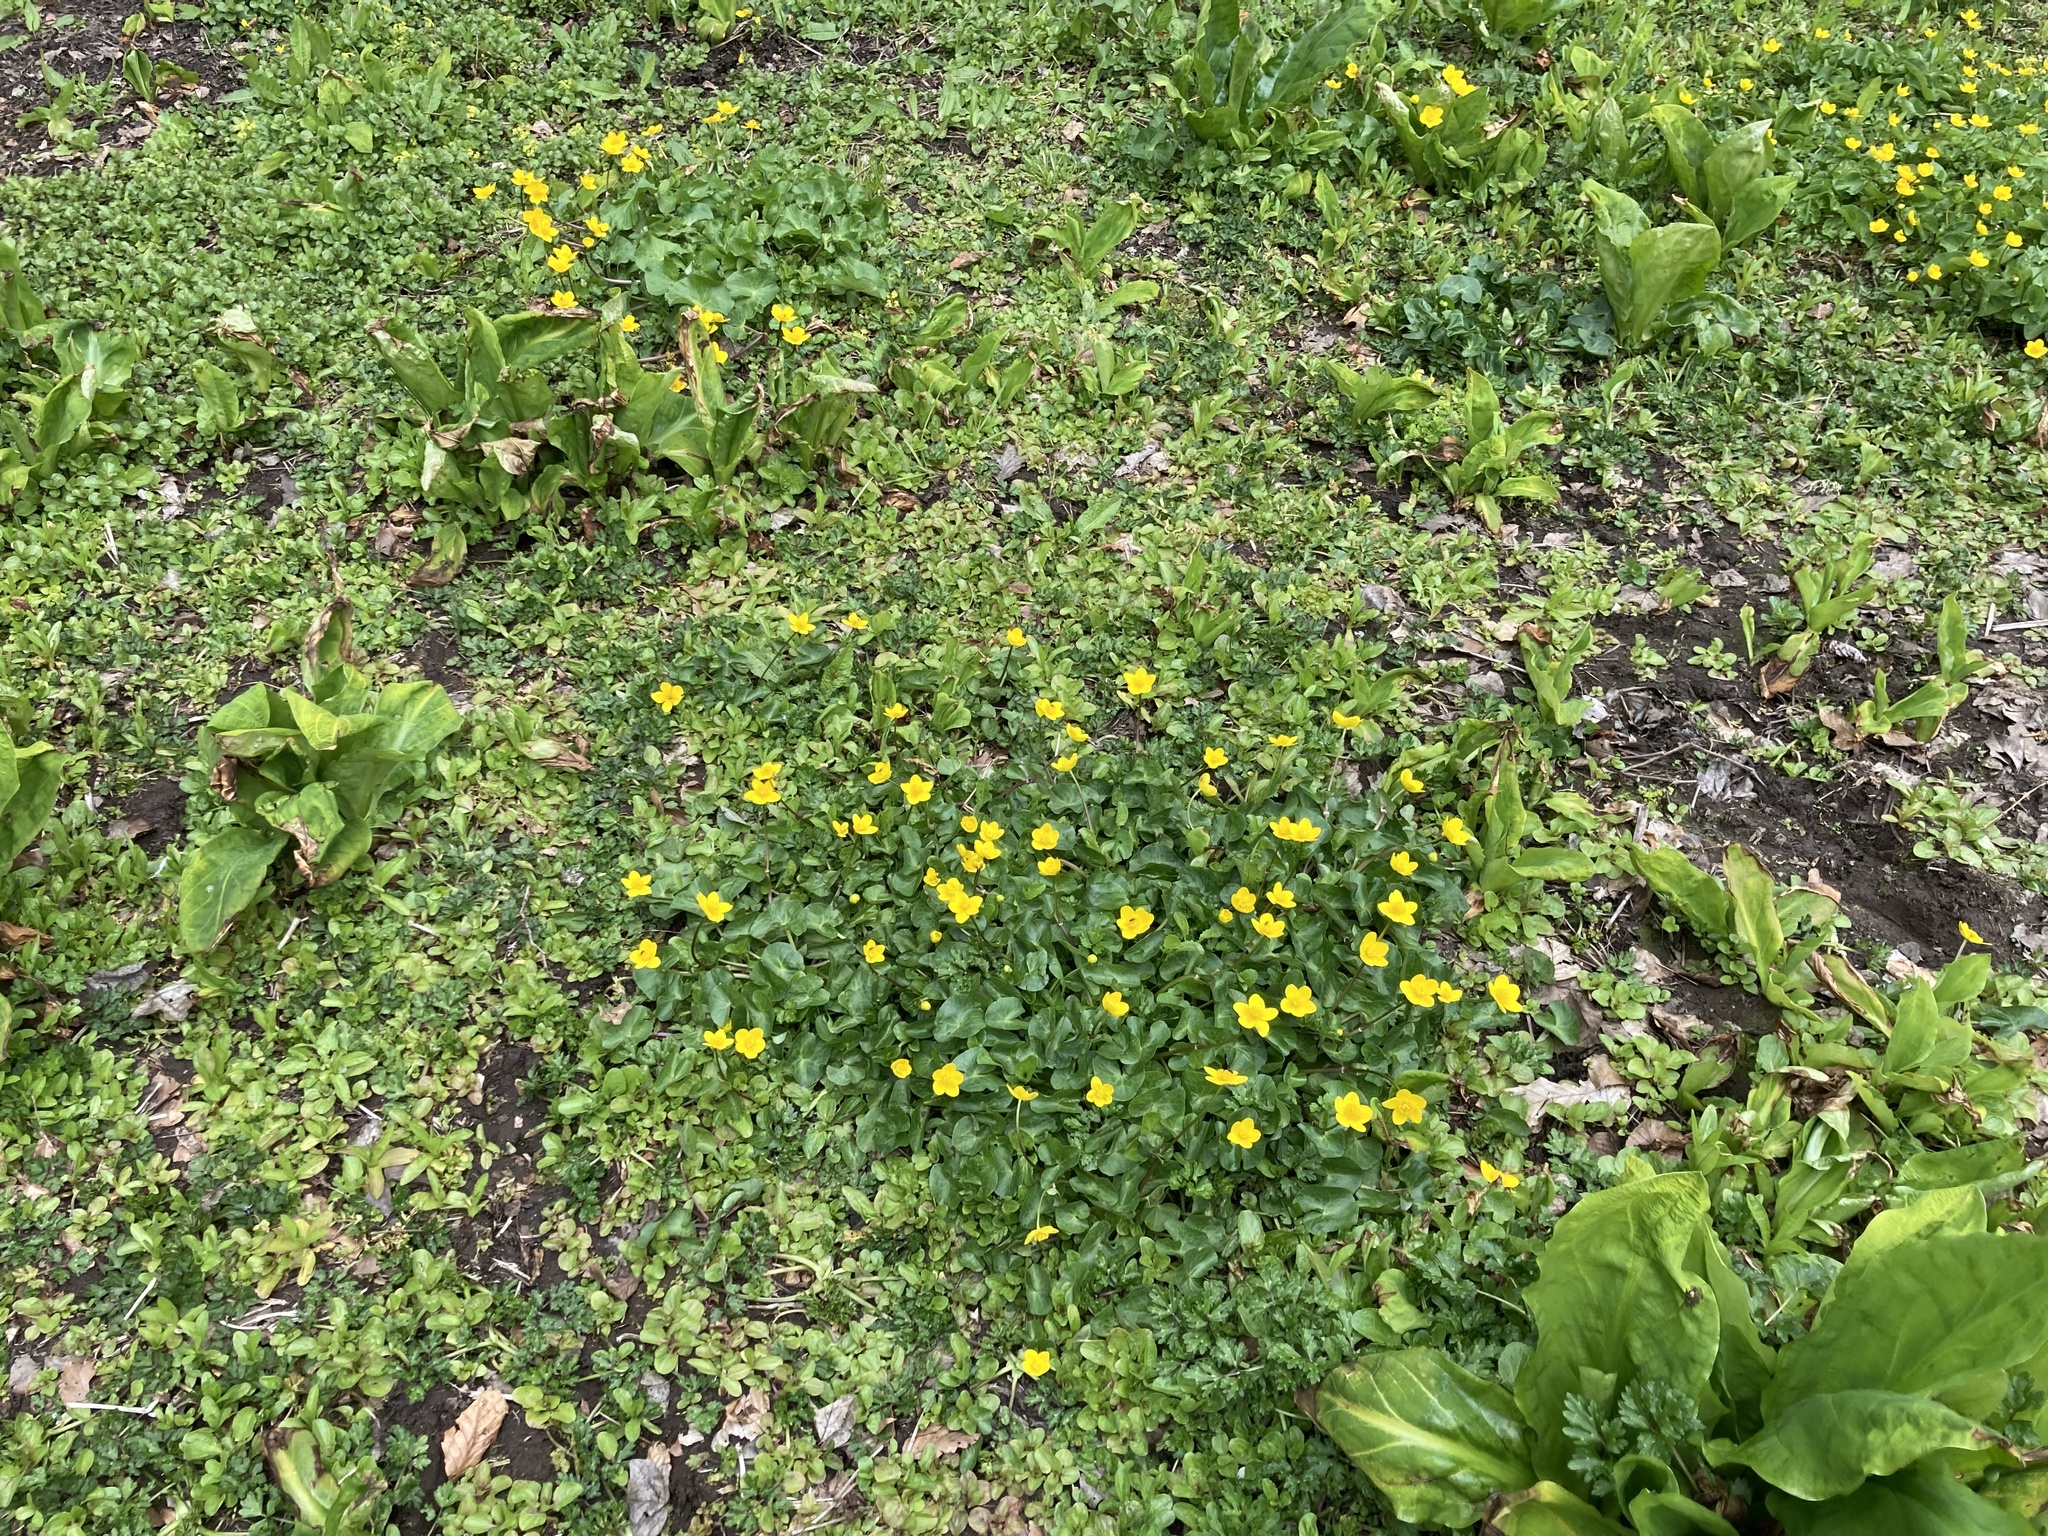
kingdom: Plantae
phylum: Tracheophyta
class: Magnoliopsida
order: Ranunculales
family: Ranunculaceae
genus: Caltha
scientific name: Caltha palustris
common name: Marsh marigold
